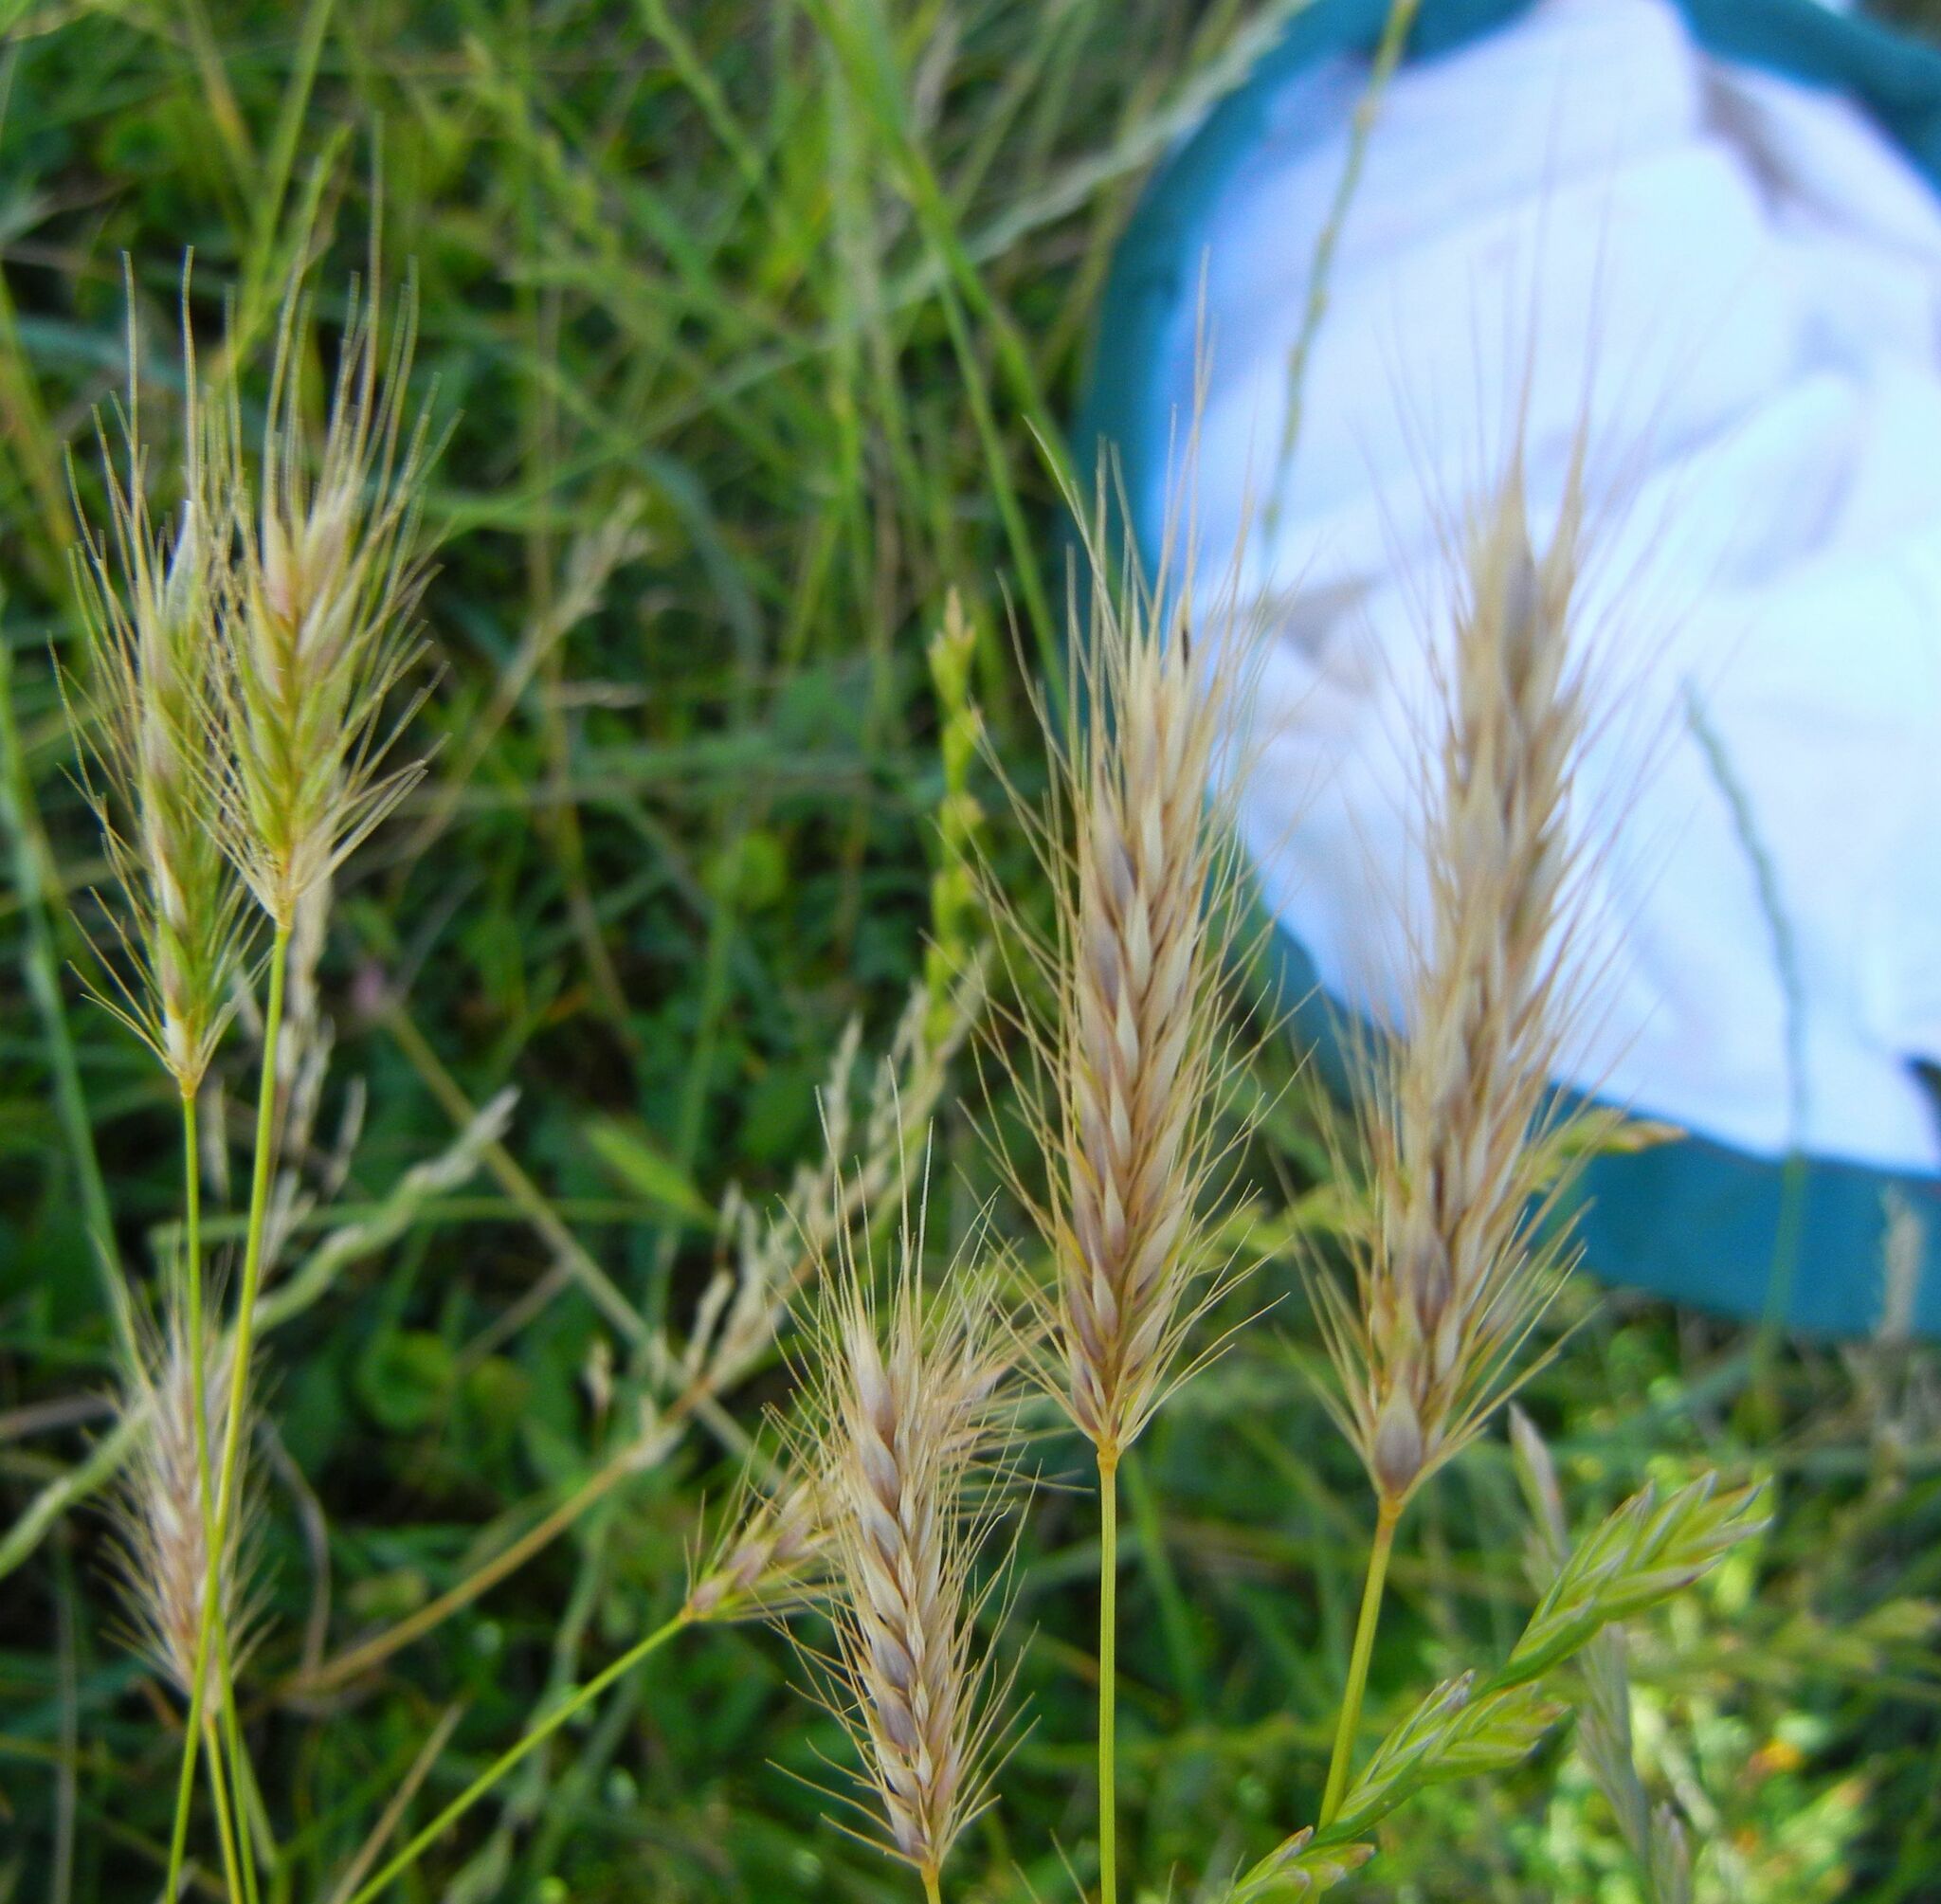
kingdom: Plantae
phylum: Tracheophyta
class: Liliopsida
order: Poales
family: Poaceae
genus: Hordeum
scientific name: Hordeum secalinum
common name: Meadow barley
